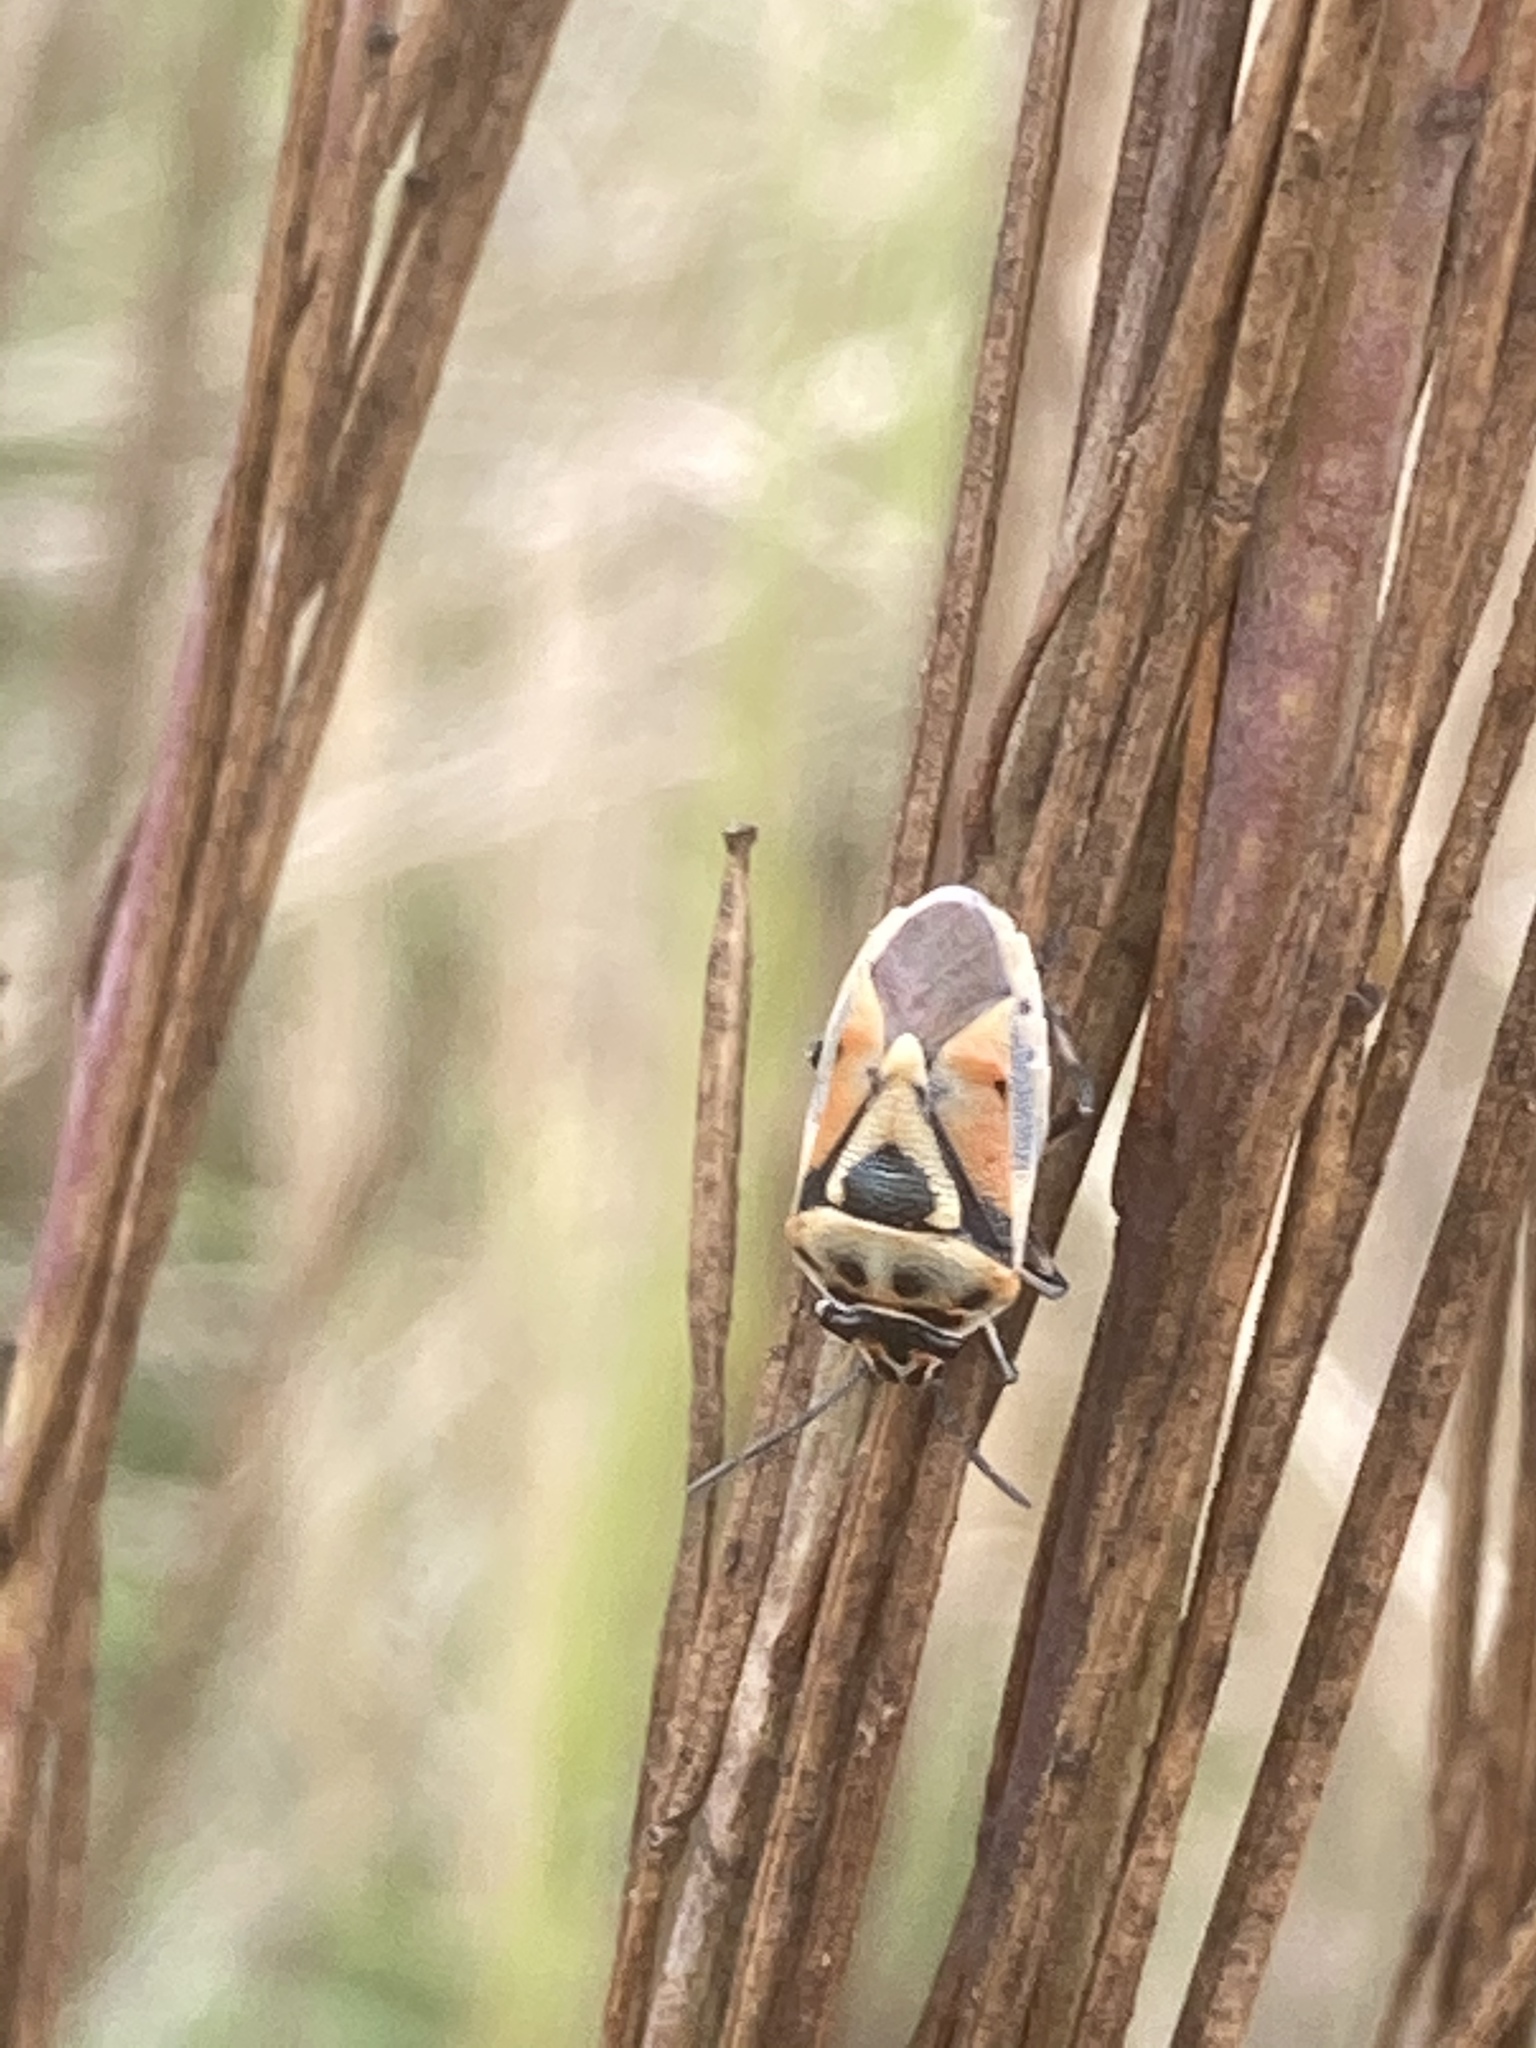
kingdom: Animalia
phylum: Arthropoda
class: Insecta
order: Hemiptera
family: Pentatomidae
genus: Eurydema
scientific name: Eurydema ornata
